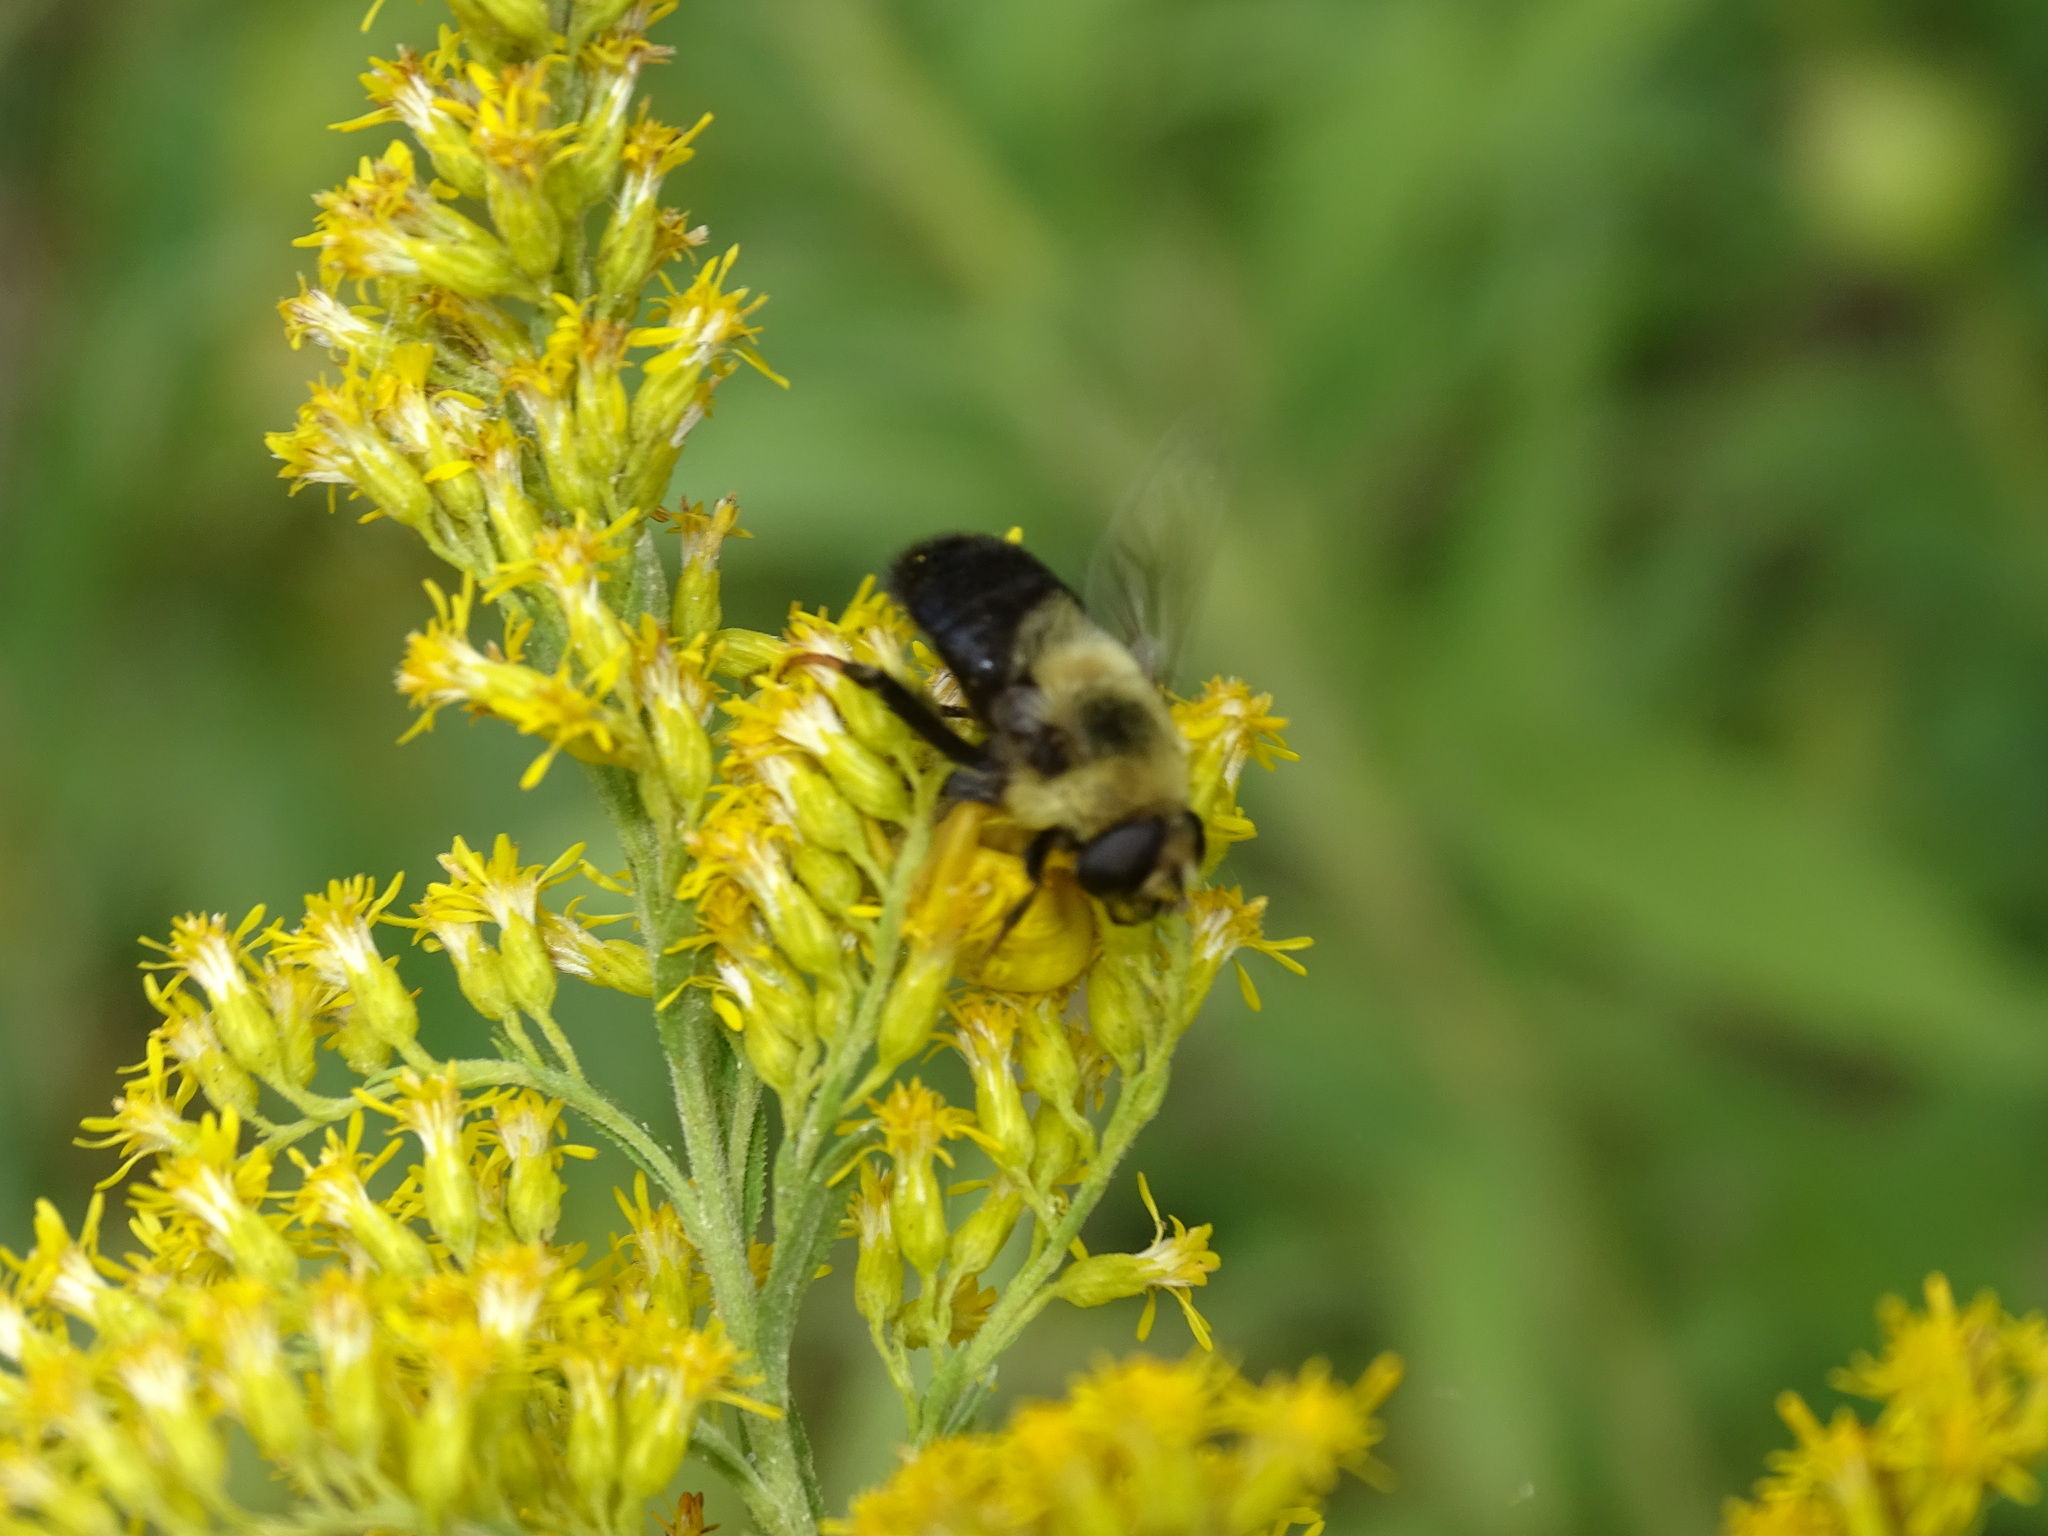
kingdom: Animalia
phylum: Arthropoda
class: Insecta
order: Diptera
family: Syrphidae
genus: Eristalis
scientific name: Eristalis flavipes
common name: Orange-legged drone fly
